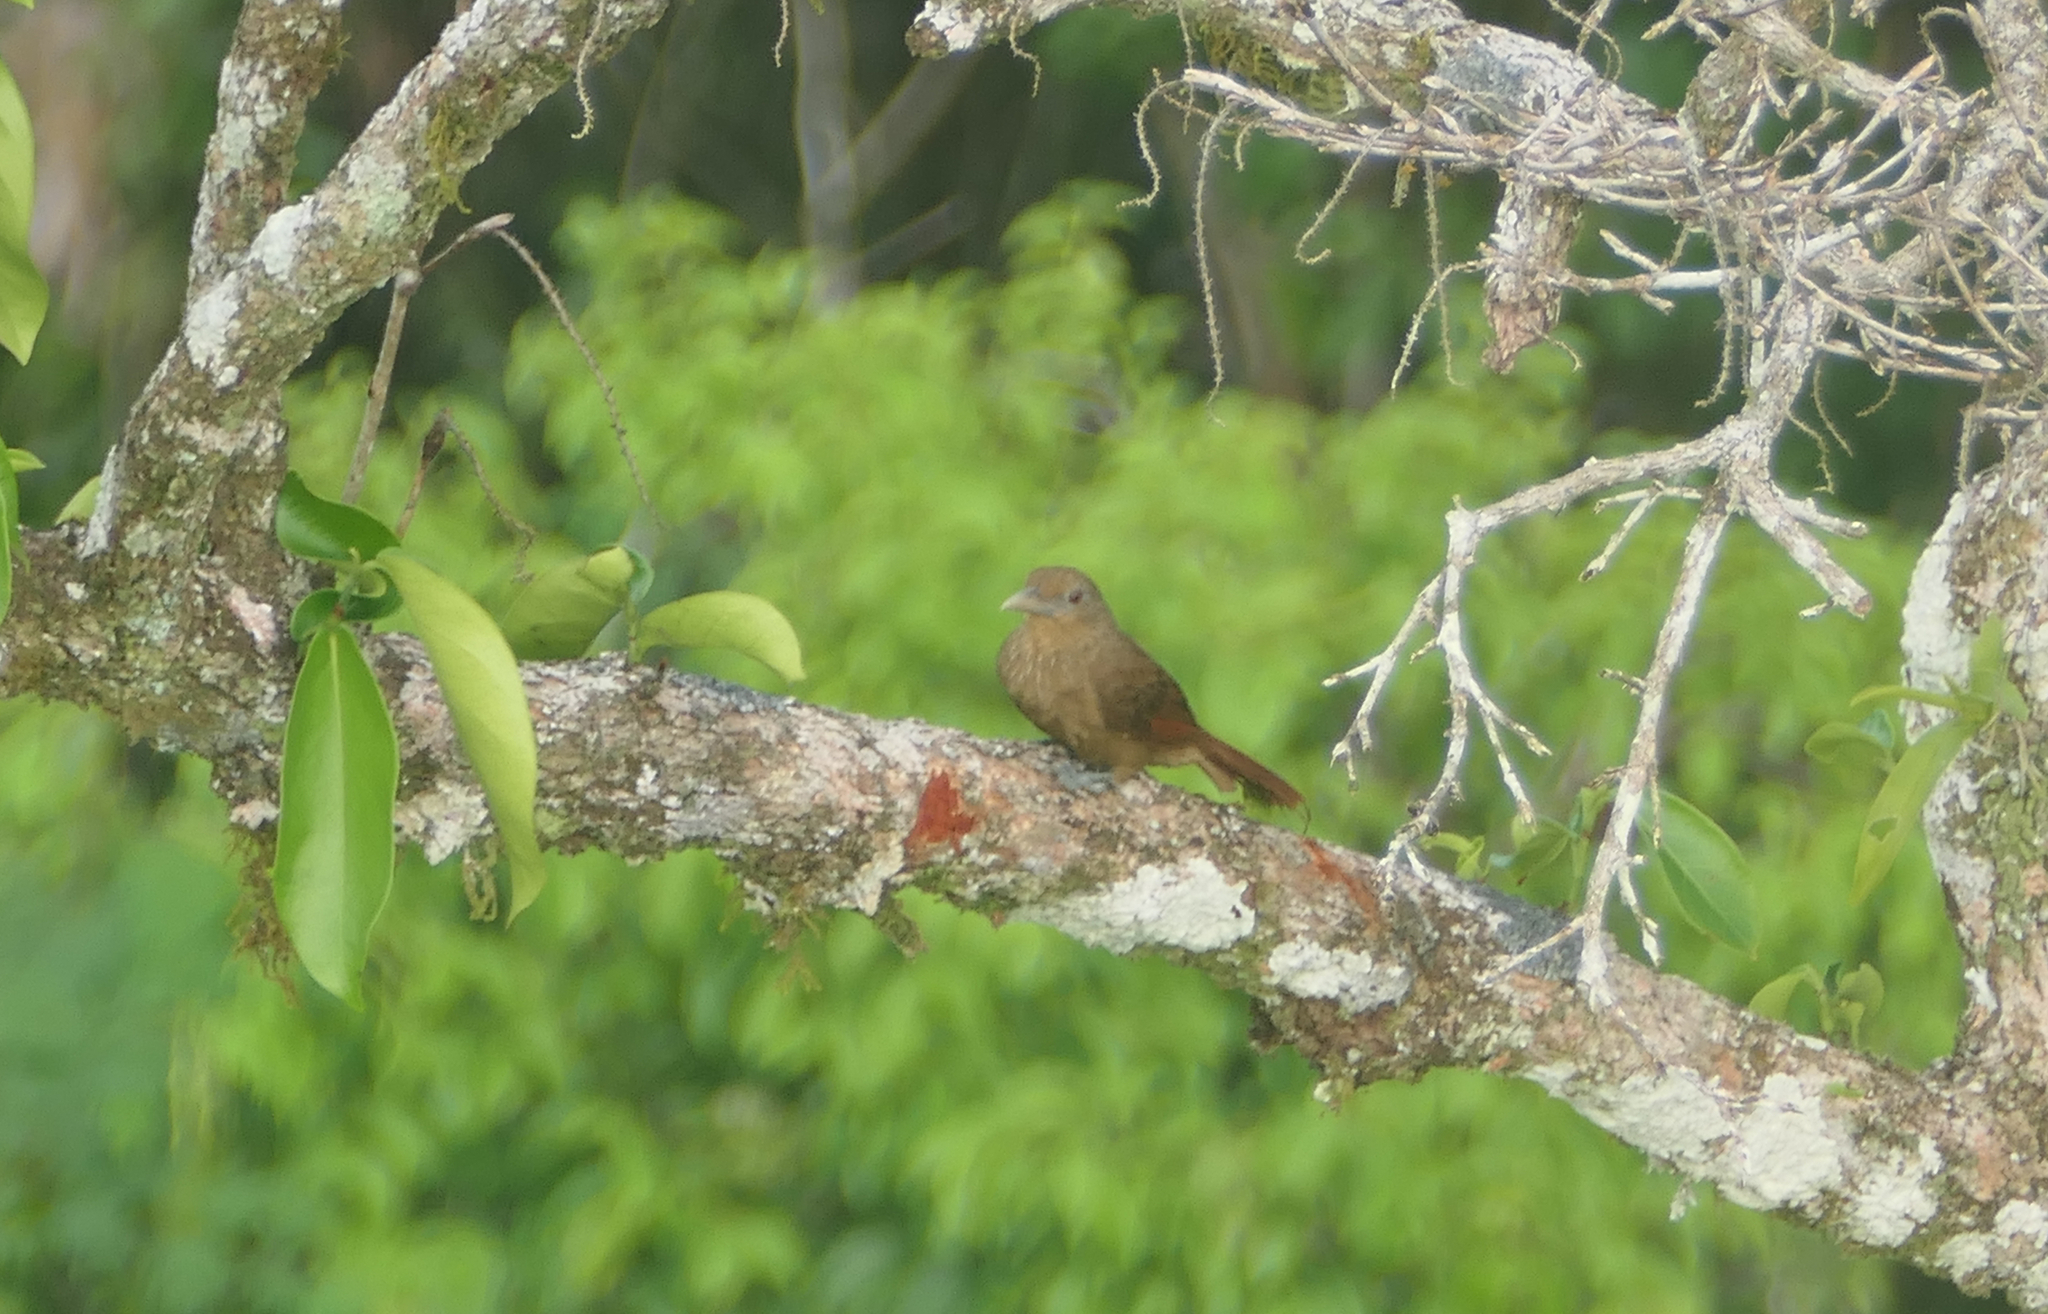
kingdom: Animalia
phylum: Chordata
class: Aves
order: Passeriformes
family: Furnariidae
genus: Dendrexetastes
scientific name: Dendrexetastes rufigula
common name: Cinnamon-throated woodcreeper
